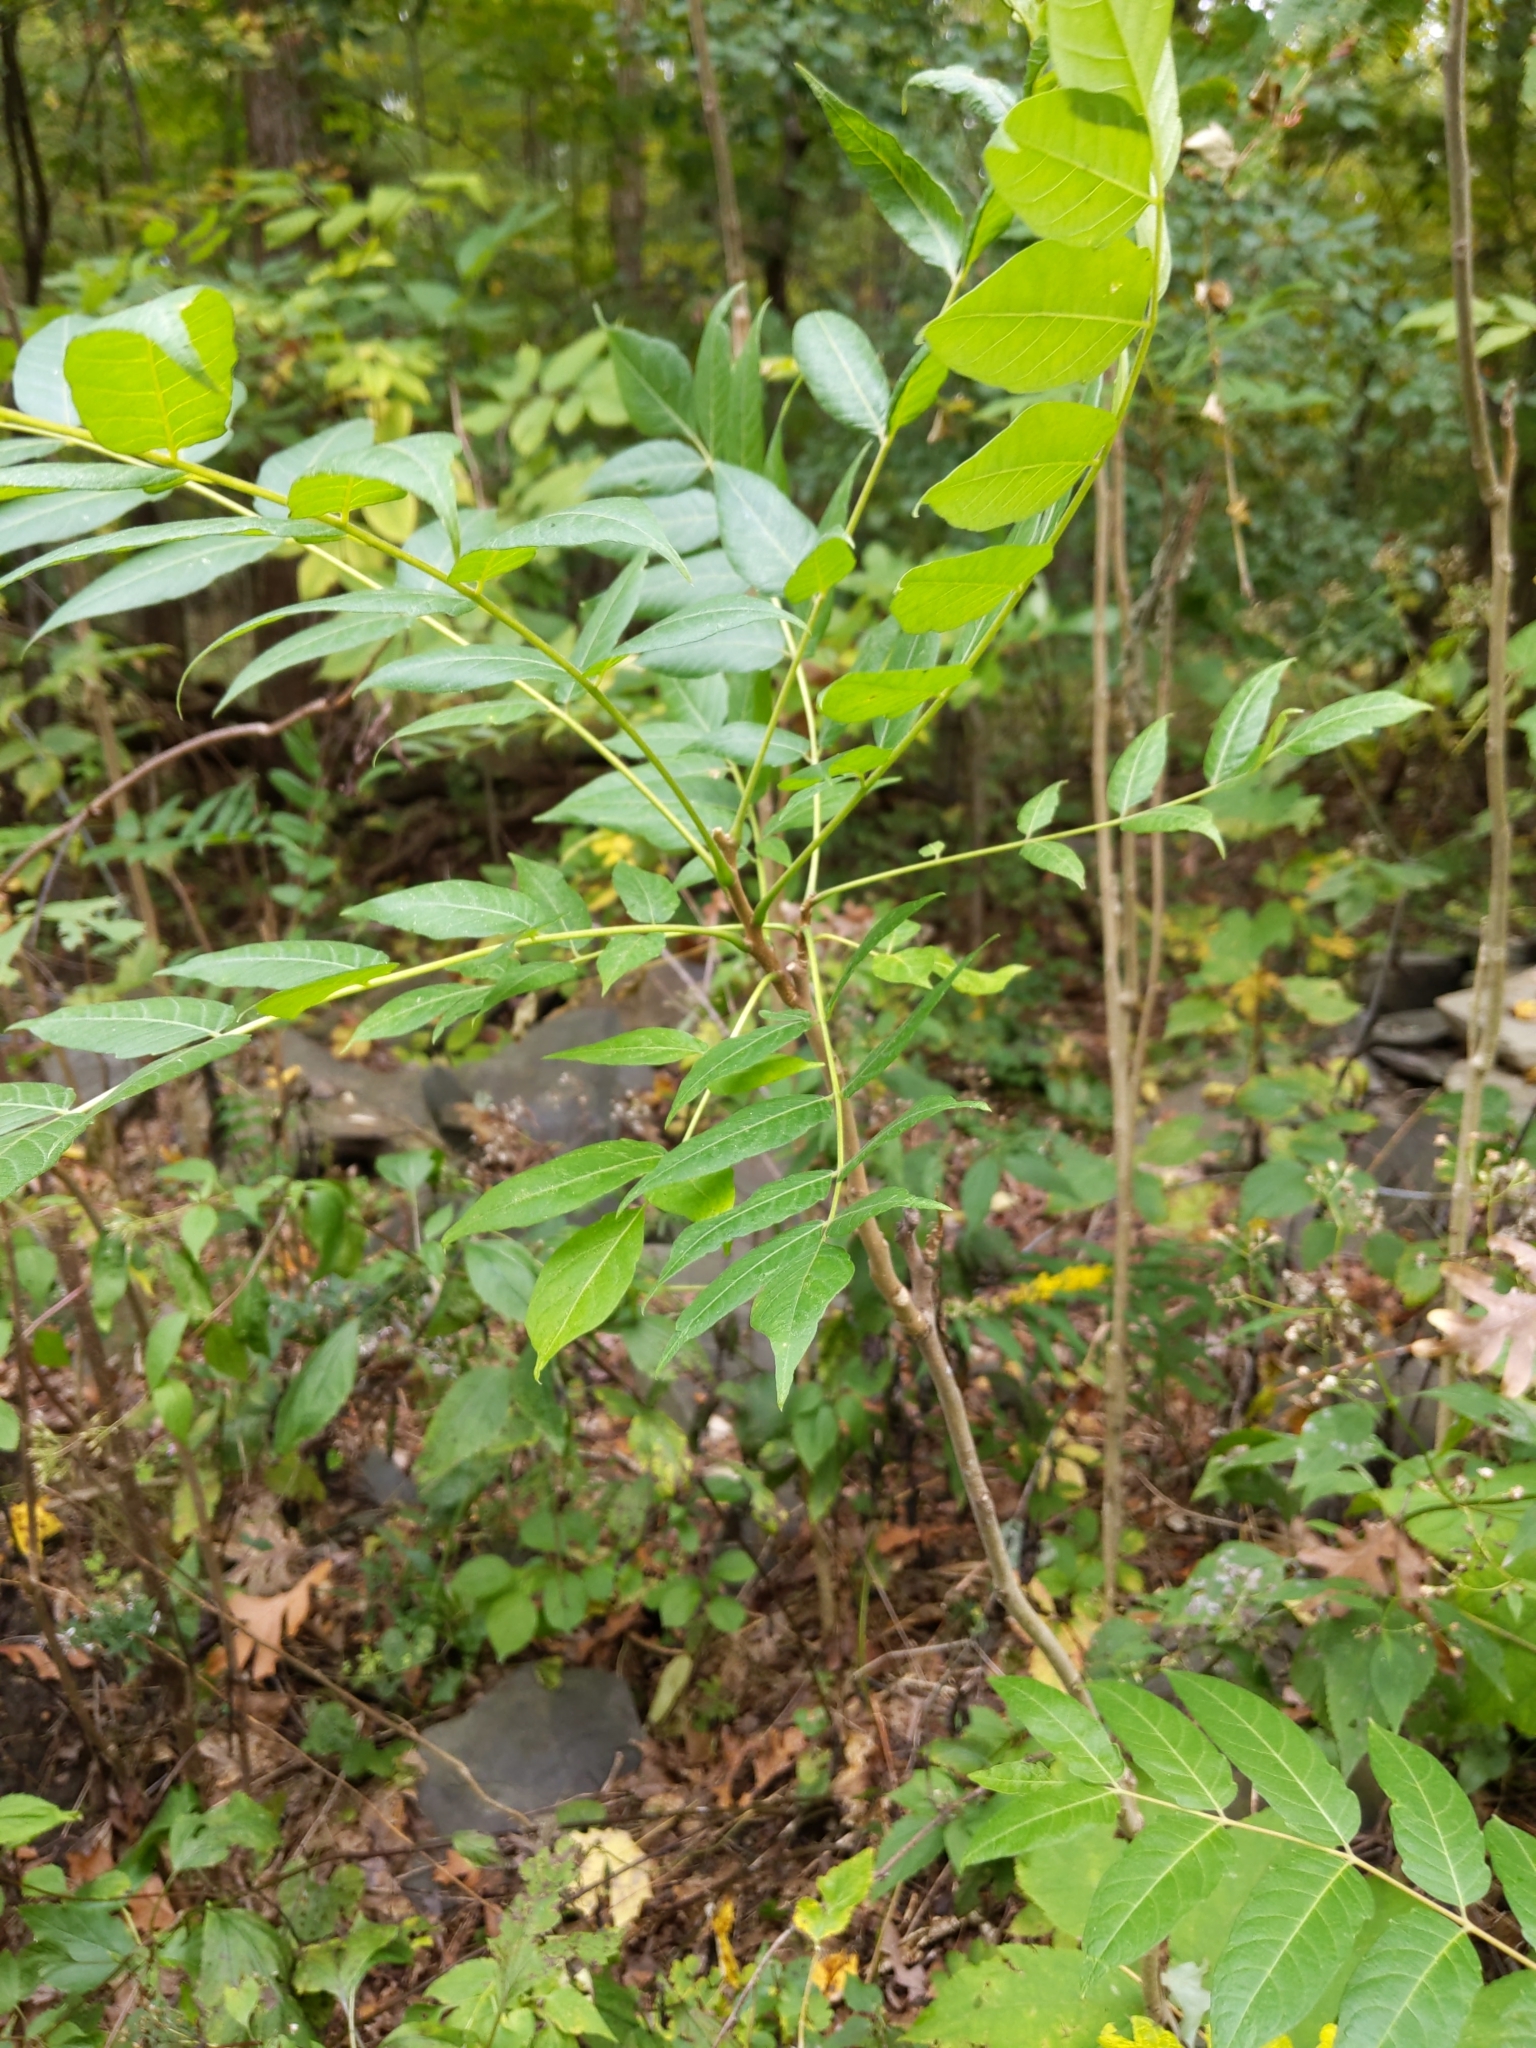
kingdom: Plantae
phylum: Tracheophyta
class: Magnoliopsida
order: Sapindales
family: Simaroubaceae
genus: Ailanthus
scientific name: Ailanthus altissima
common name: Tree-of-heaven
